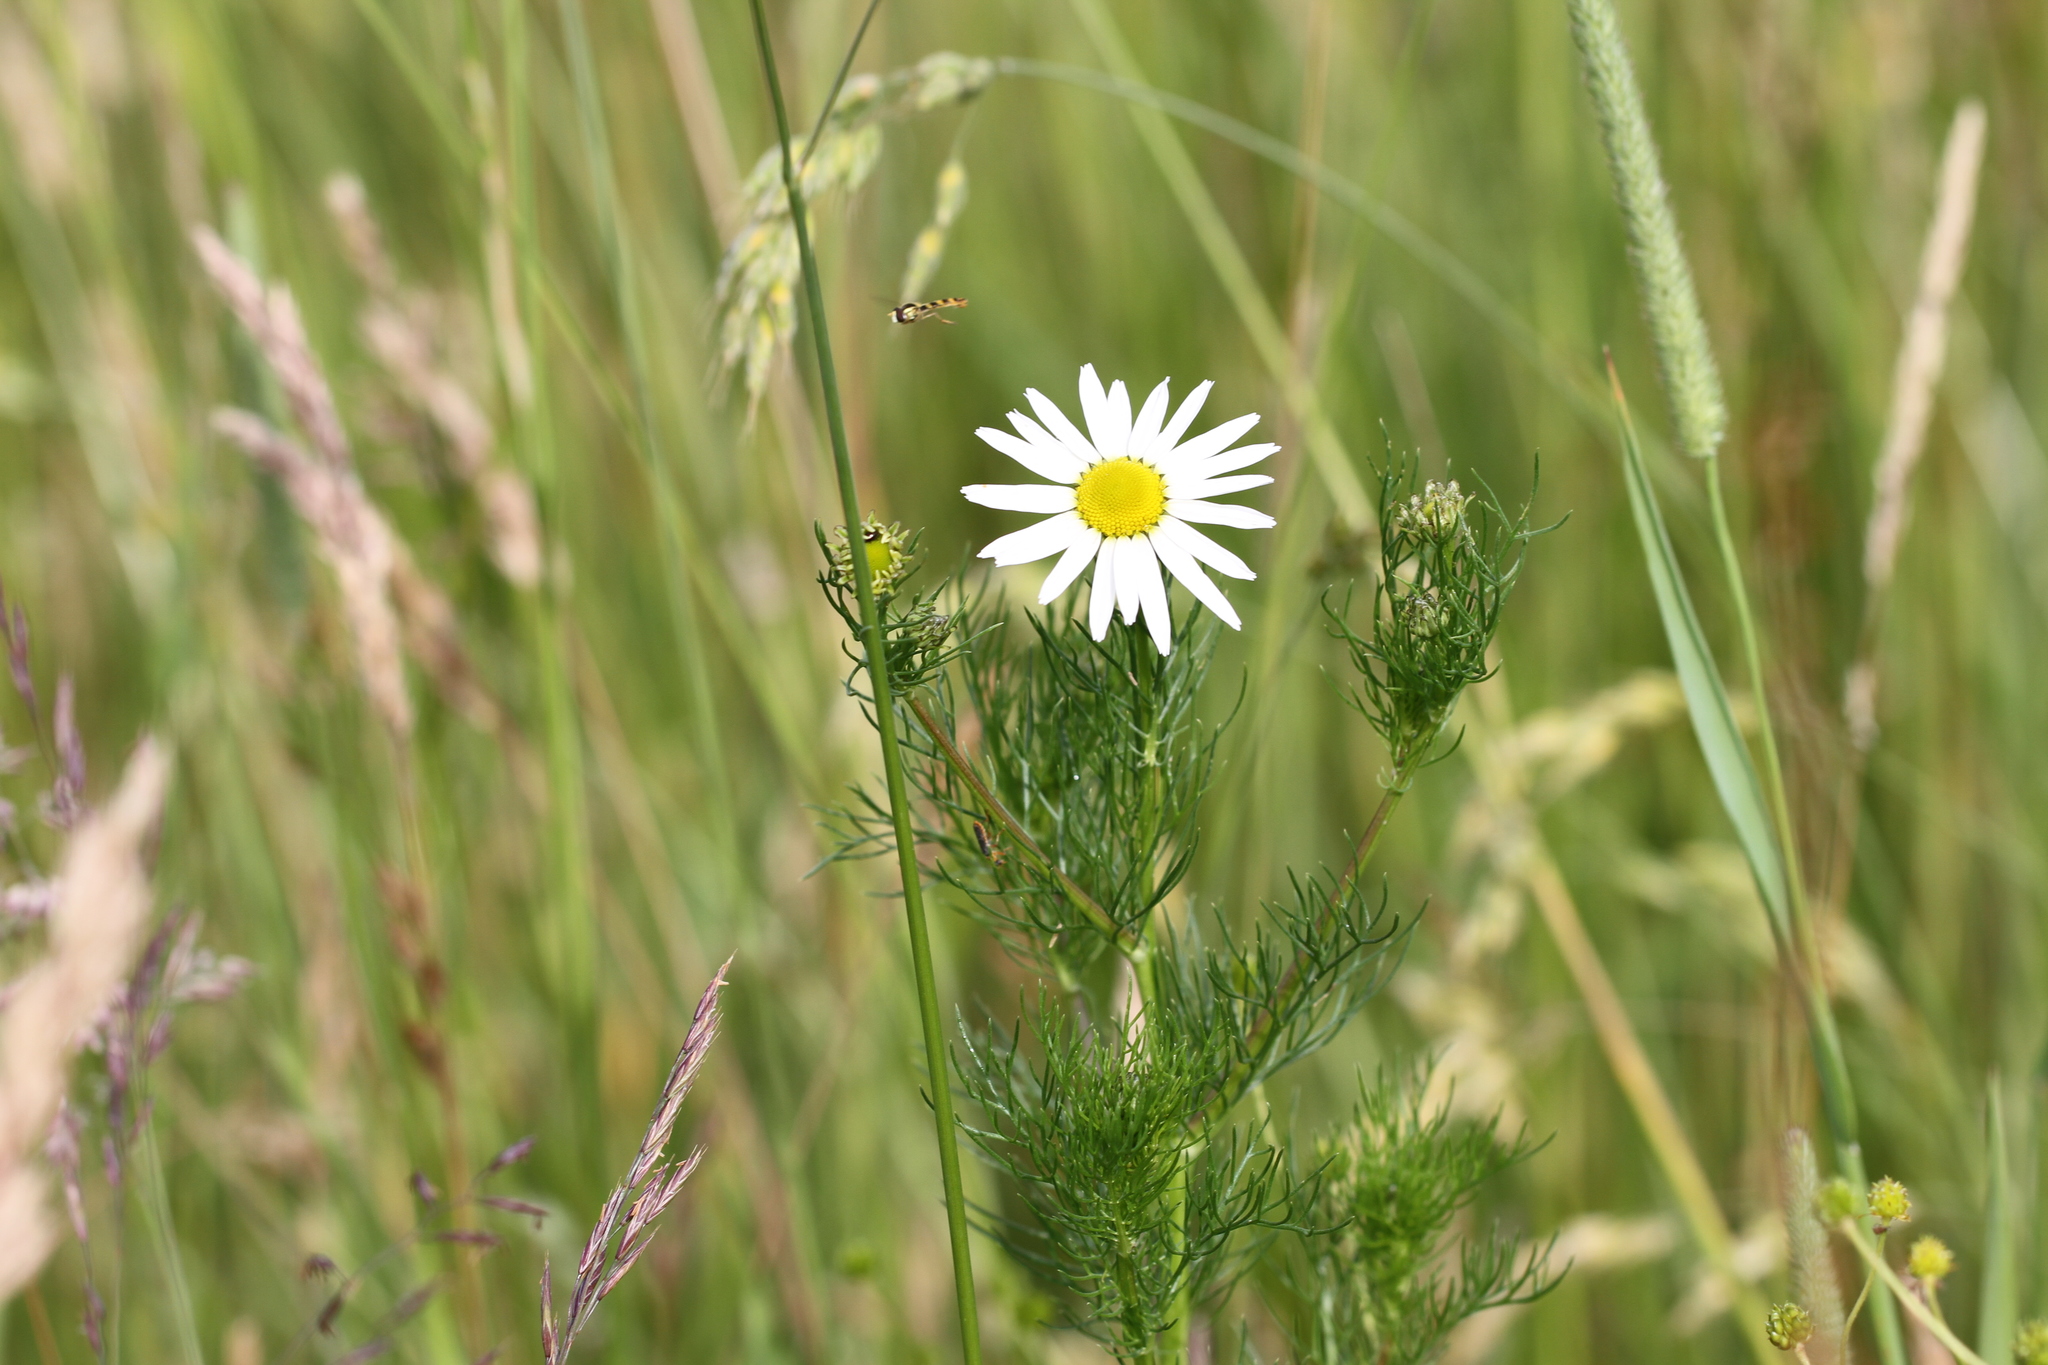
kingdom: Plantae
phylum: Tracheophyta
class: Magnoliopsida
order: Asterales
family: Asteraceae
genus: Tripleurospermum
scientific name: Tripleurospermum inodorum
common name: Scentless mayweed
